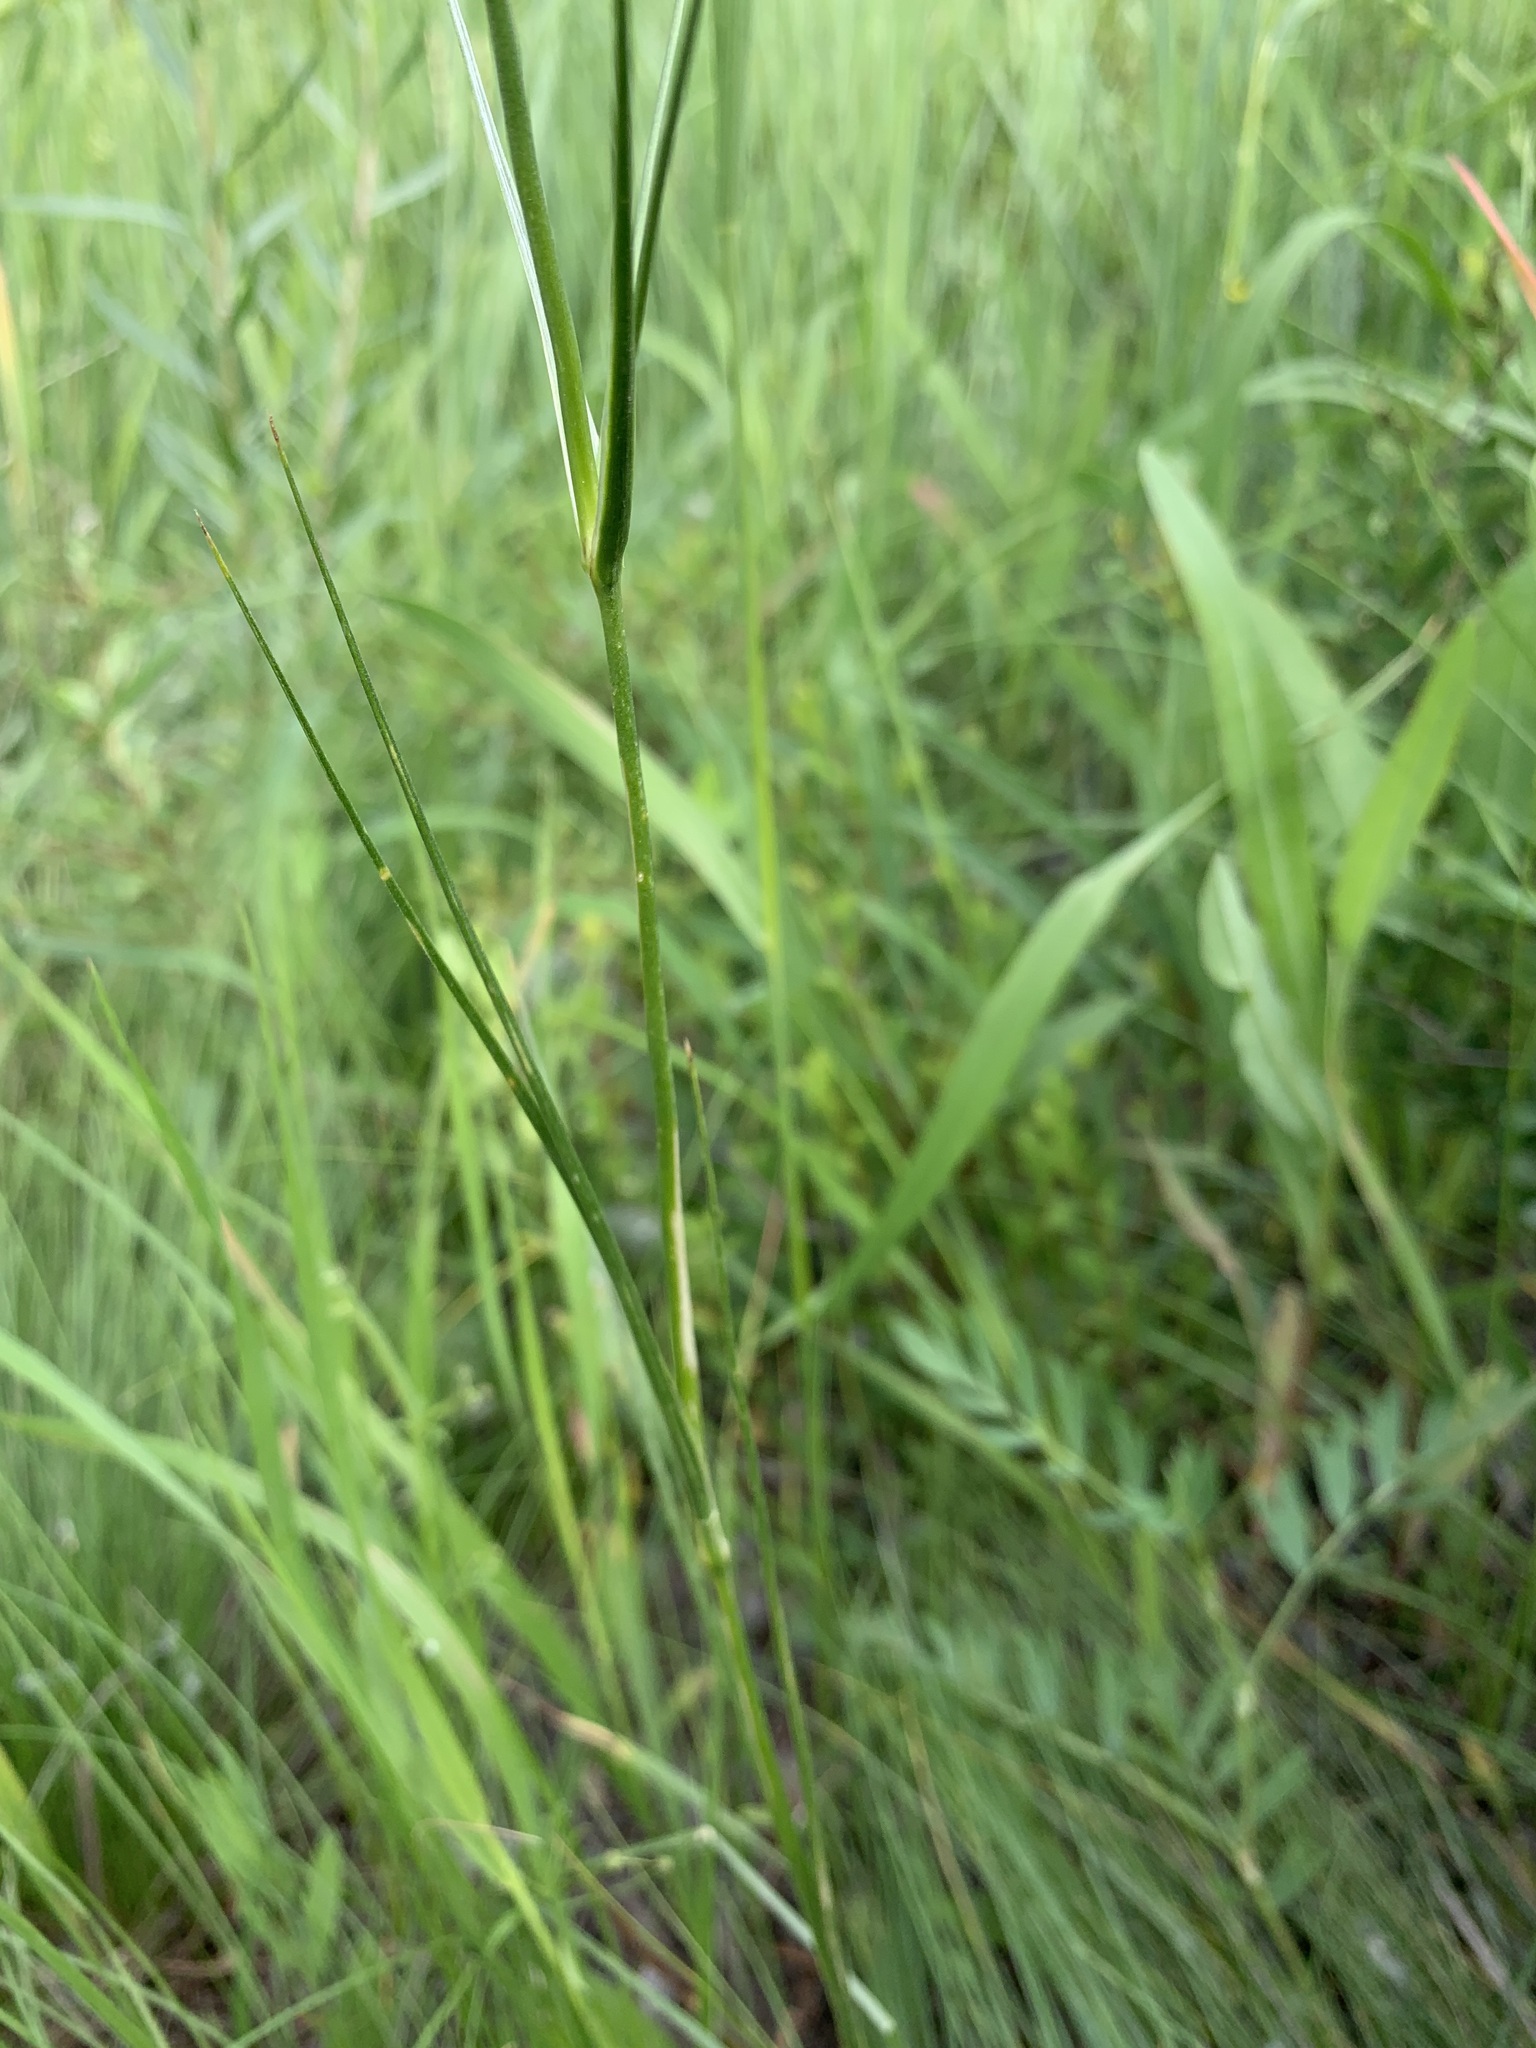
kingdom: Plantae
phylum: Tracheophyta
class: Magnoliopsida
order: Caryophyllales
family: Caryophyllaceae
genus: Eremogone
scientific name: Eremogone longifolia
